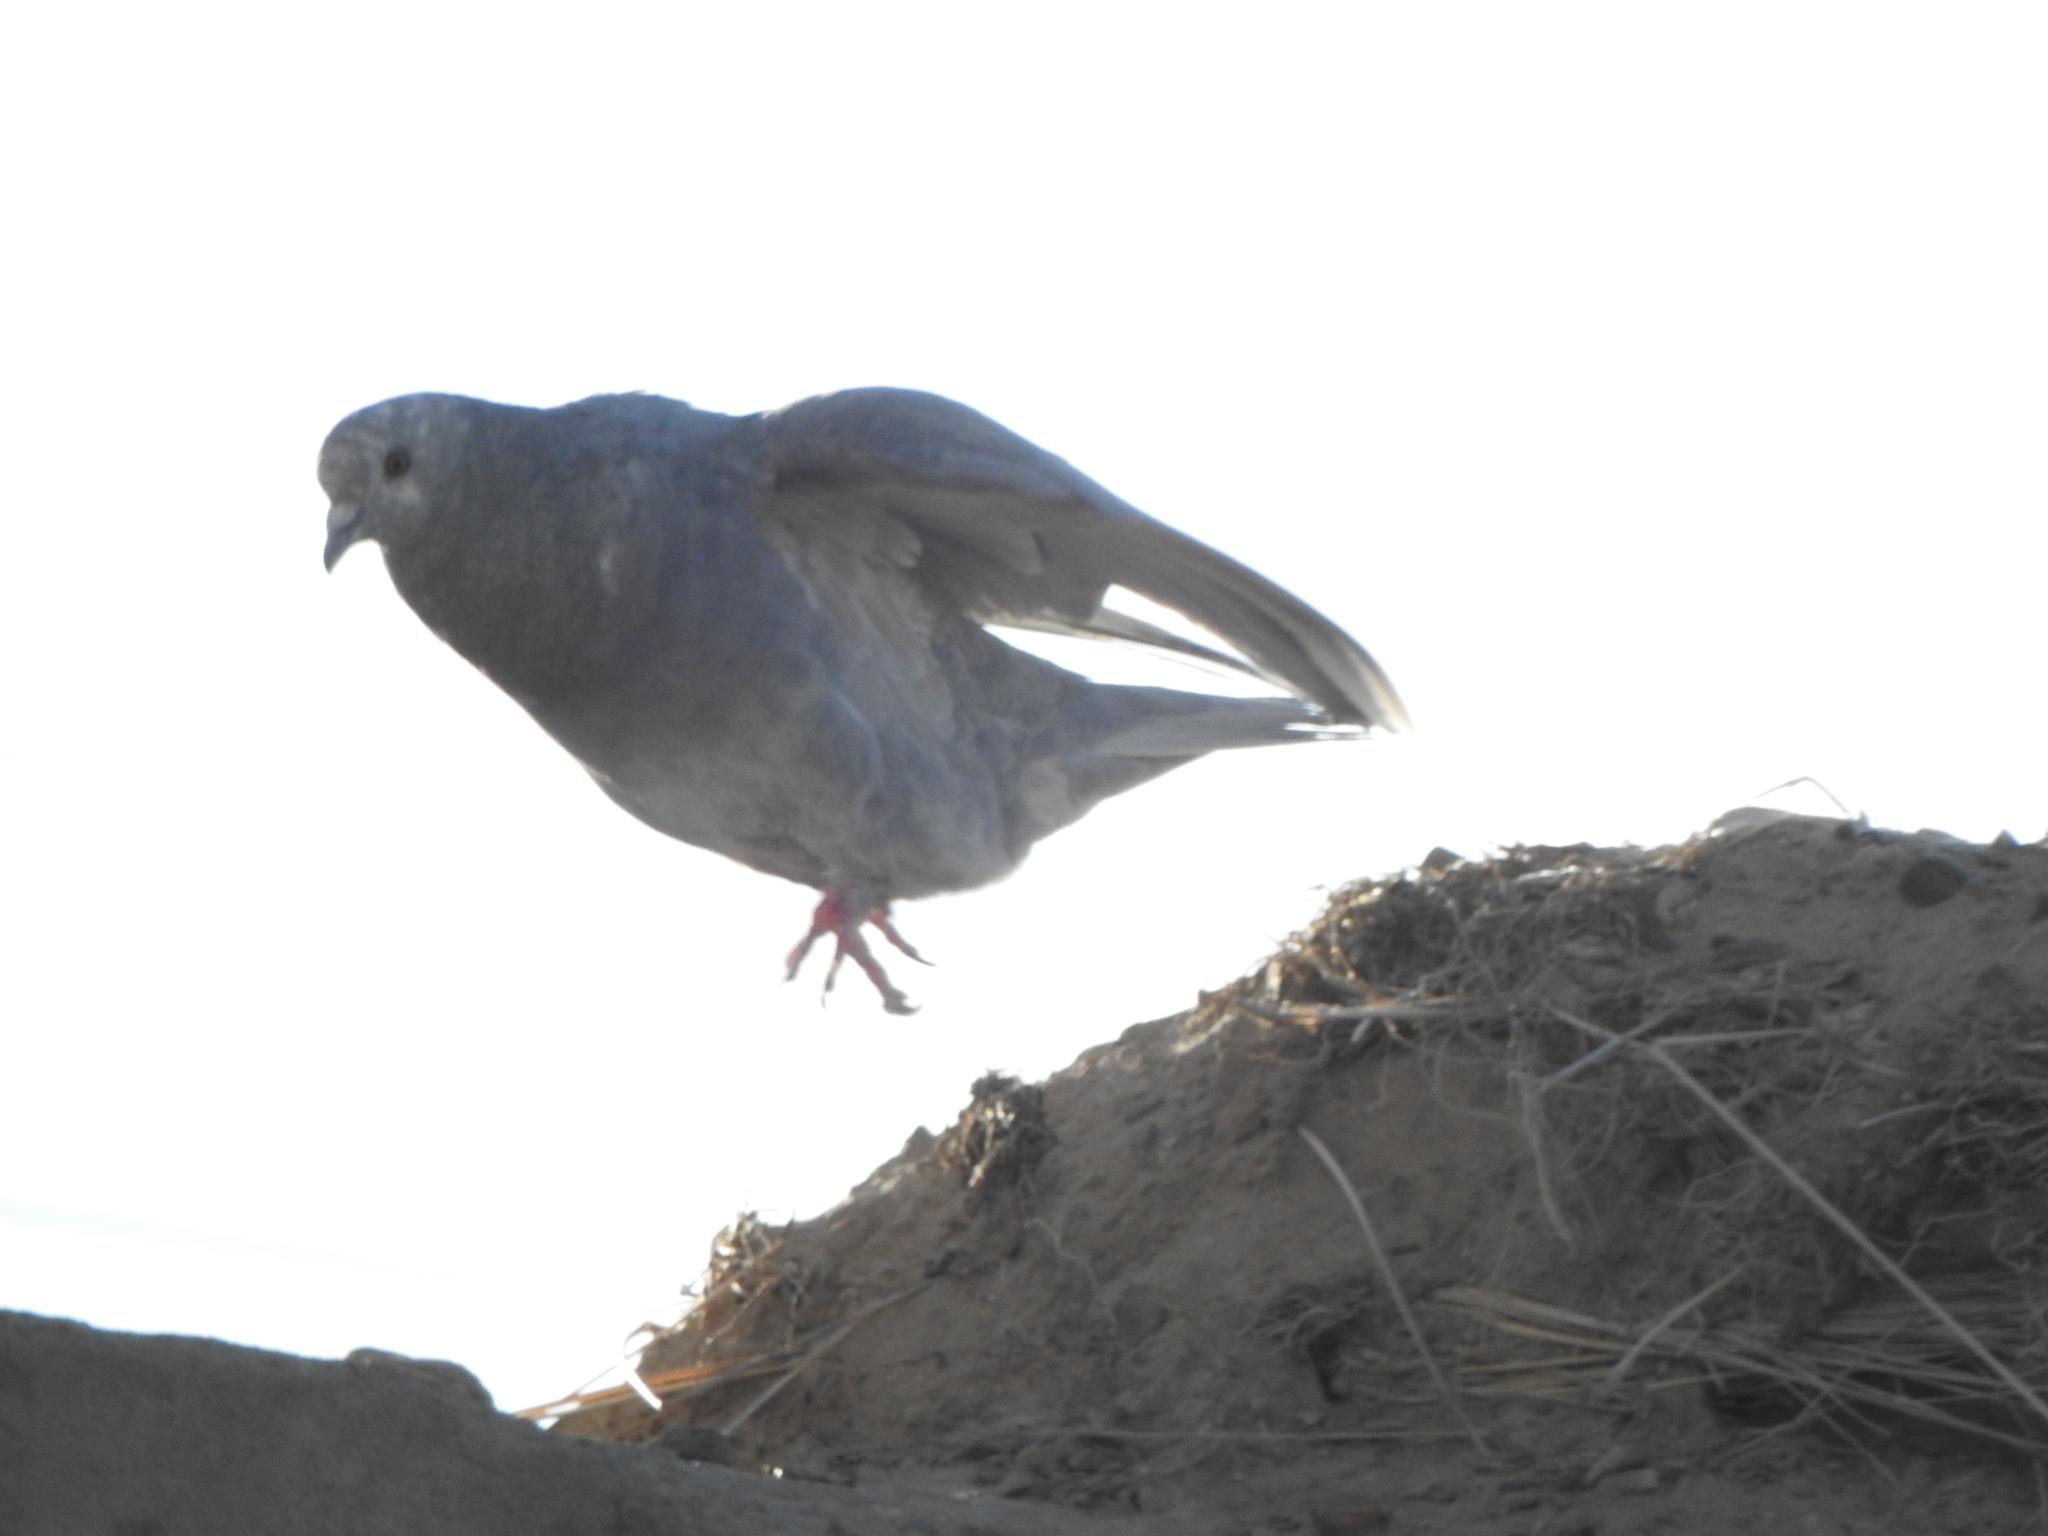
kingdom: Animalia
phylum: Chordata
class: Aves
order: Columbiformes
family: Columbidae
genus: Columba
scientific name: Columba livia
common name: Rock pigeon
